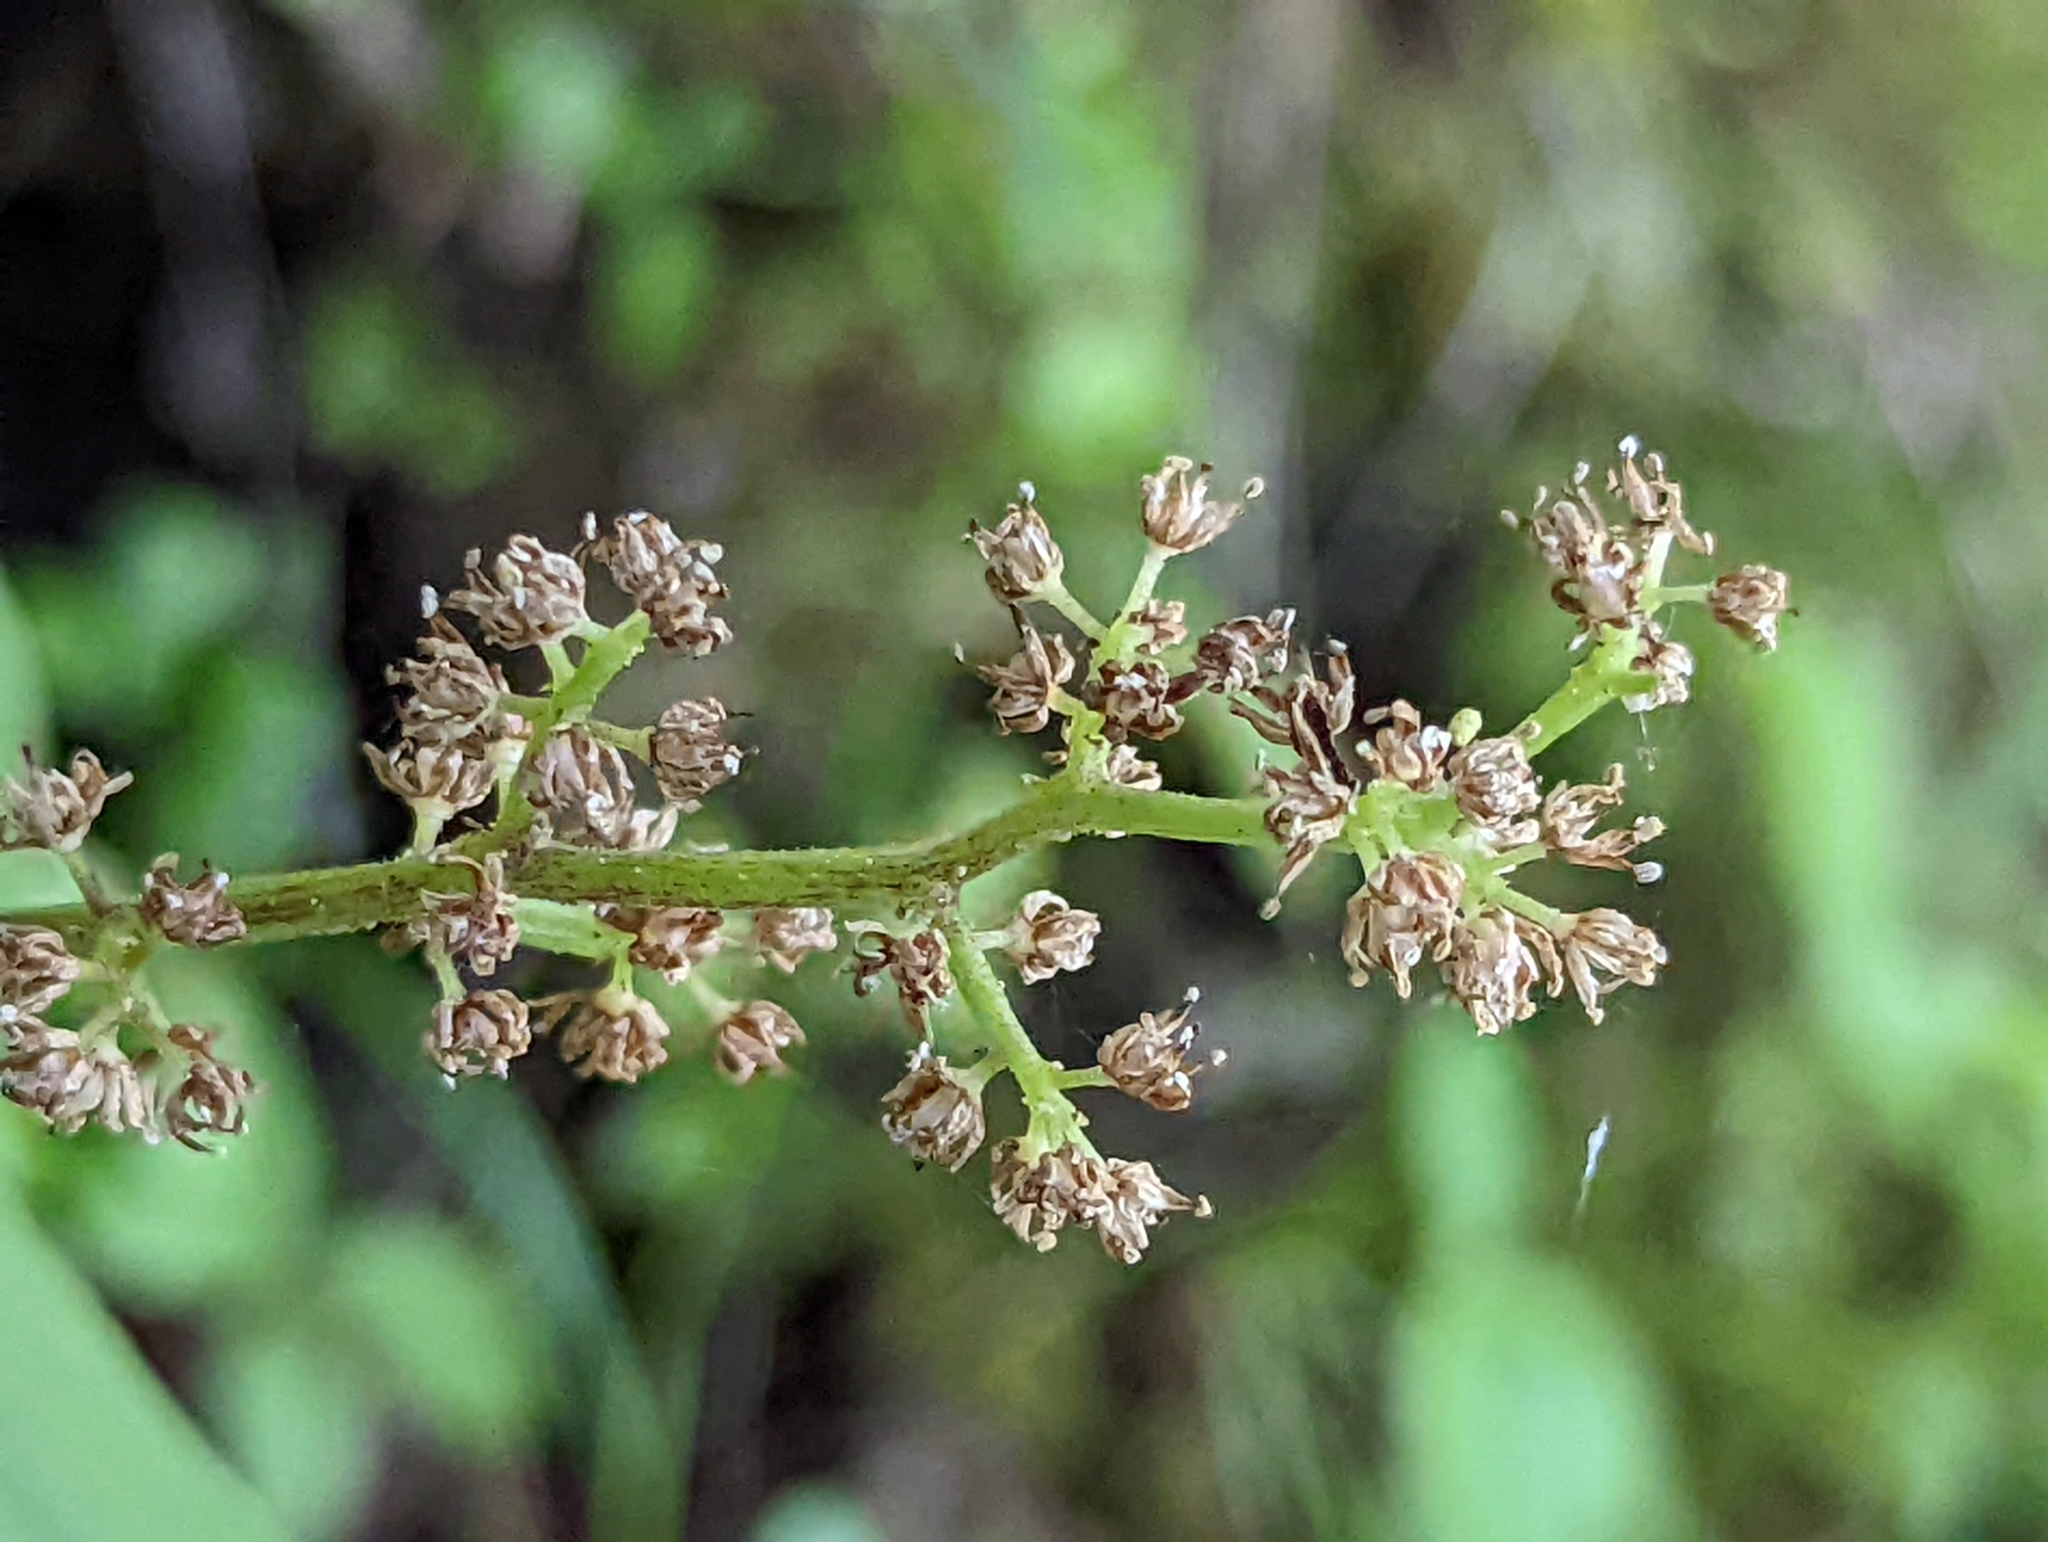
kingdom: Plantae
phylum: Tracheophyta
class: Liliopsida
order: Asparagales
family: Asparagaceae
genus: Maianthemum
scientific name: Maianthemum racemosum
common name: False spikenard
